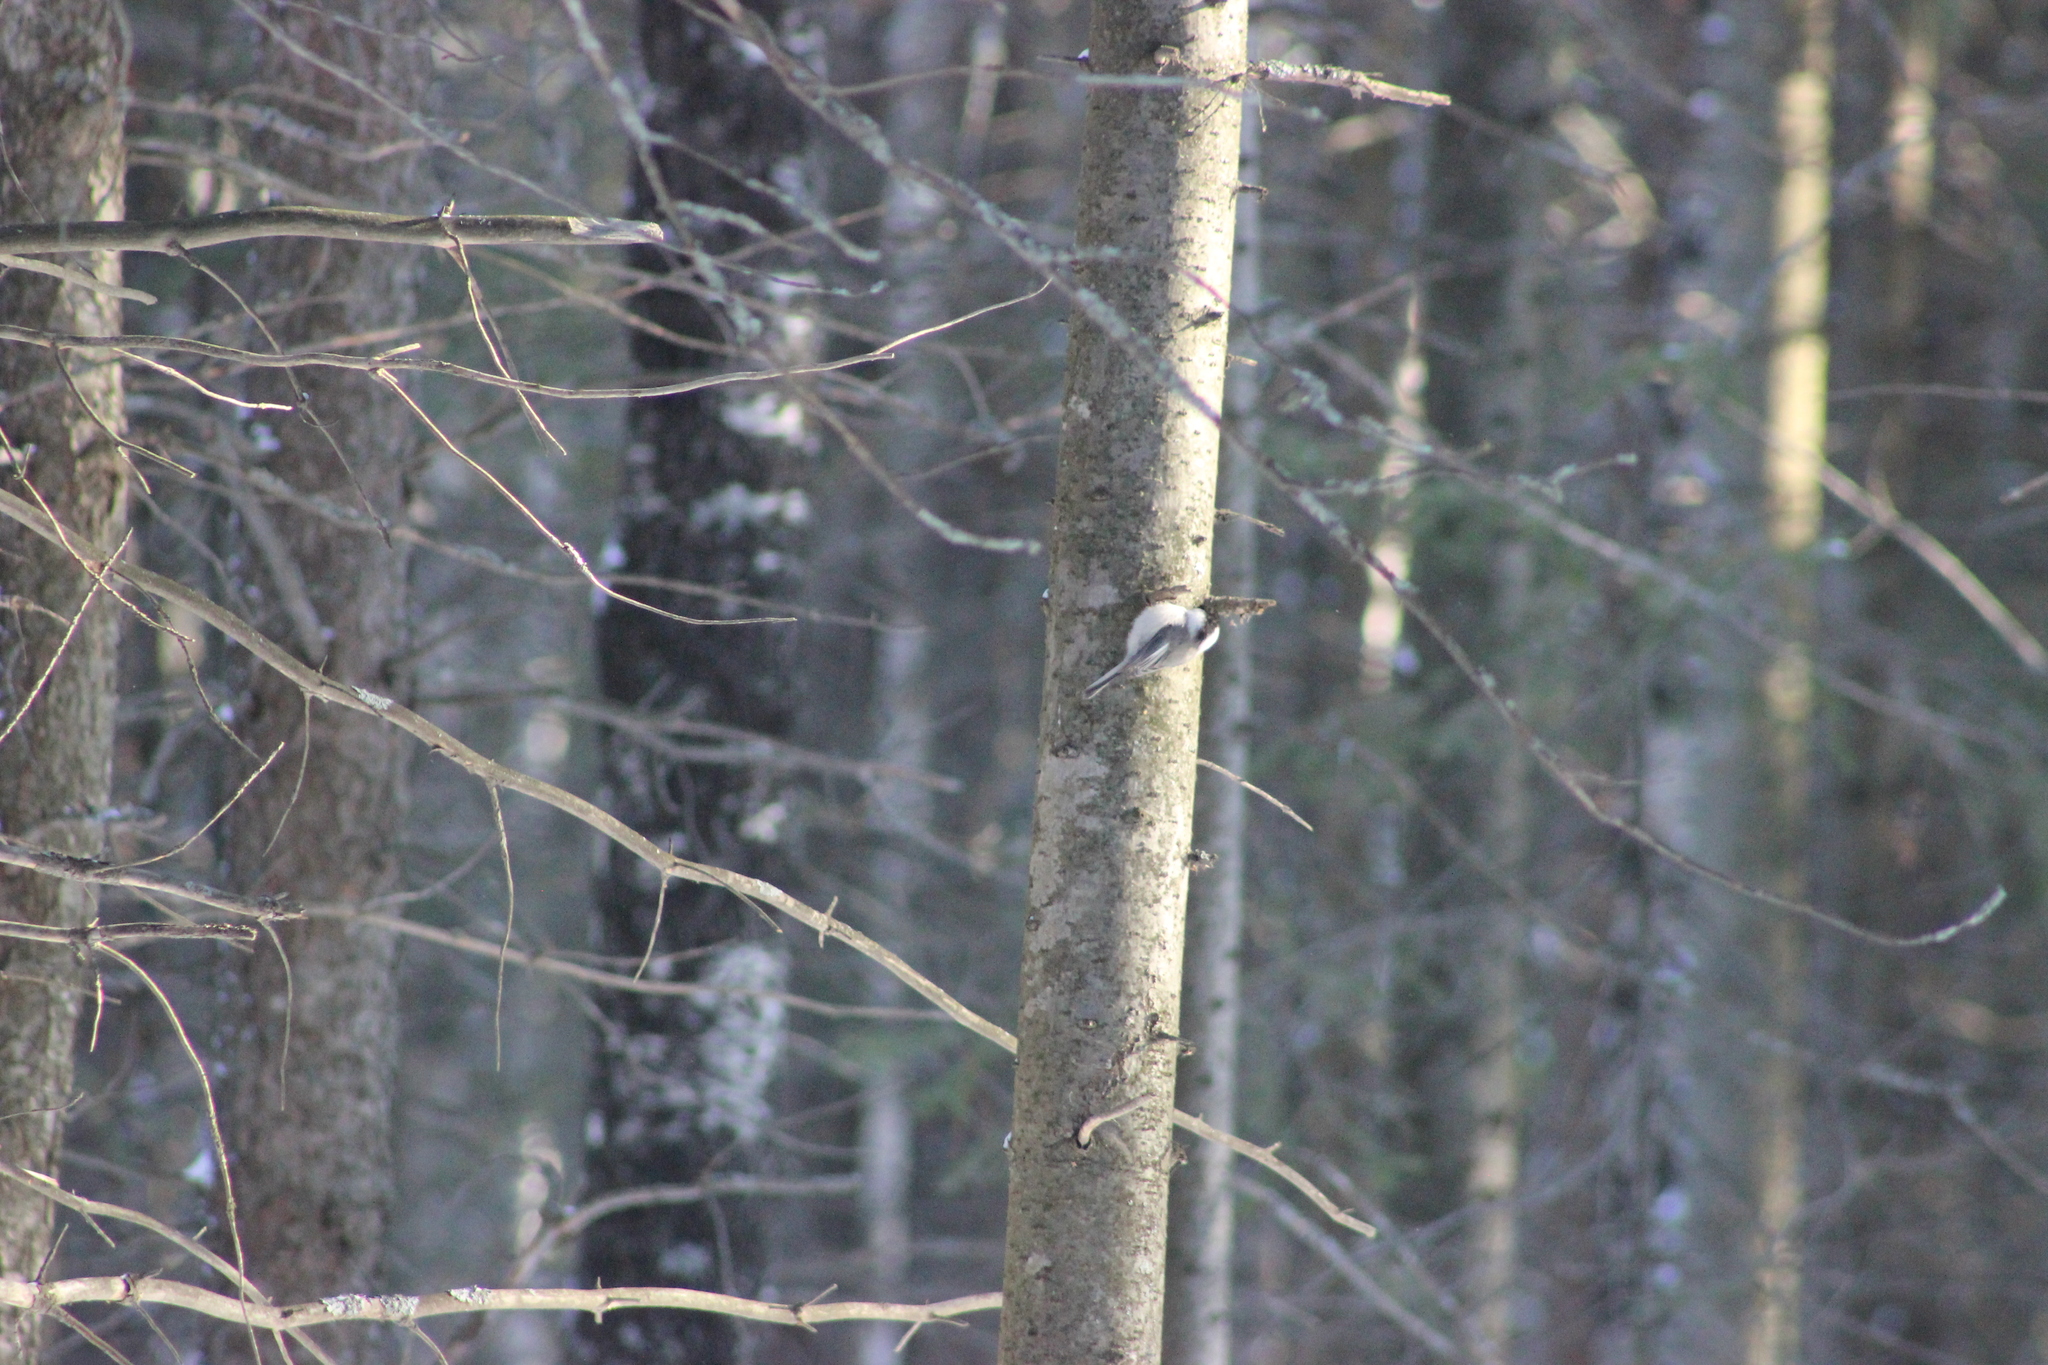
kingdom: Animalia
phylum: Chordata
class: Aves
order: Passeriformes
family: Paridae
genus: Poecile
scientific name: Poecile montanus
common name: Willow tit
